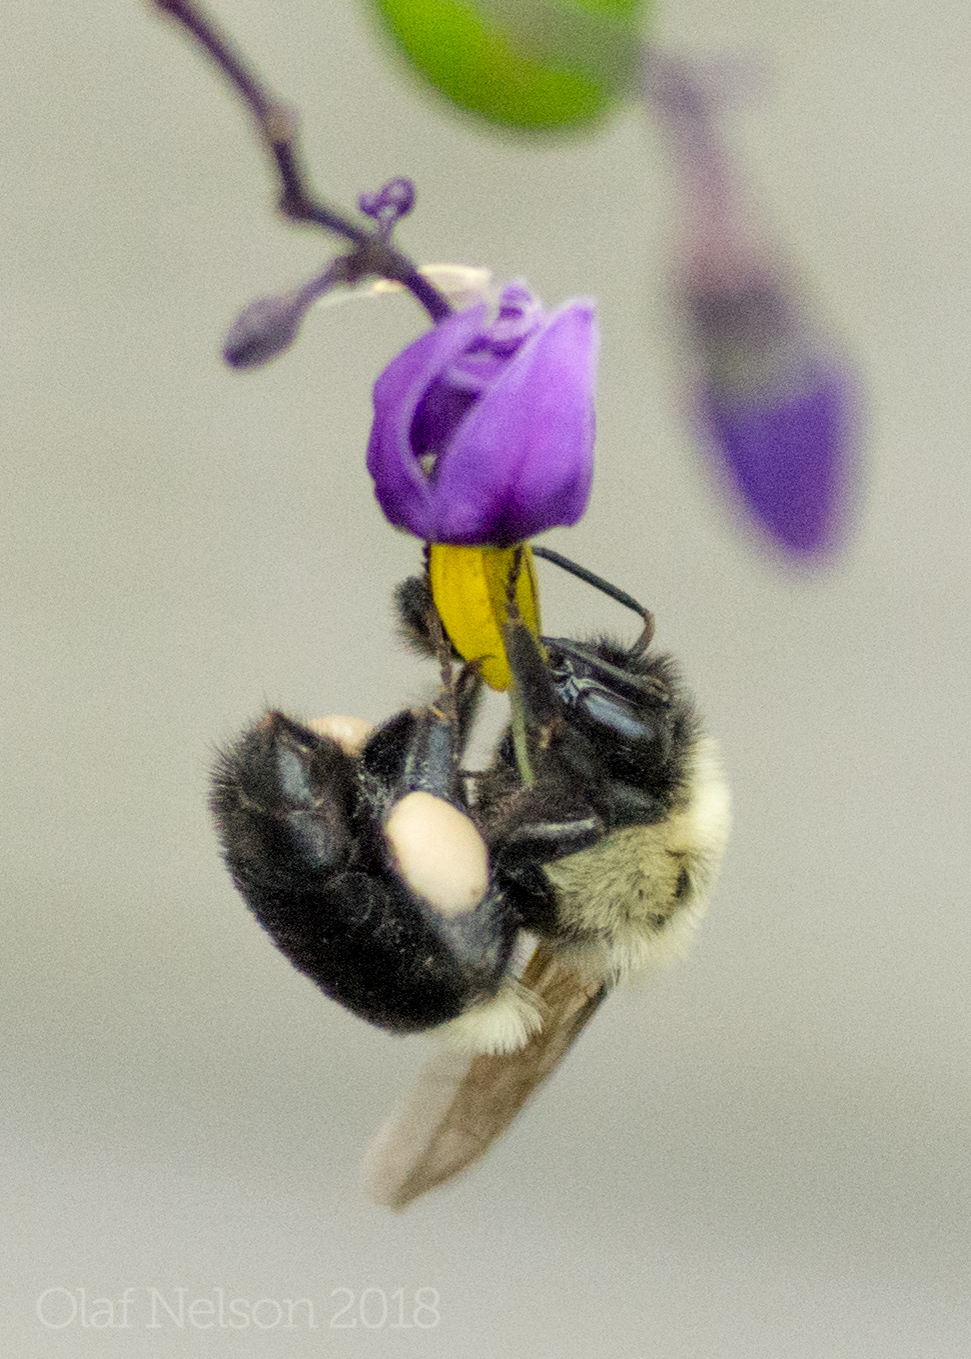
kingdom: Animalia
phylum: Arthropoda
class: Insecta
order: Hymenoptera
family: Apidae
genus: Bombus
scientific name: Bombus impatiens
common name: Common eastern bumble bee
